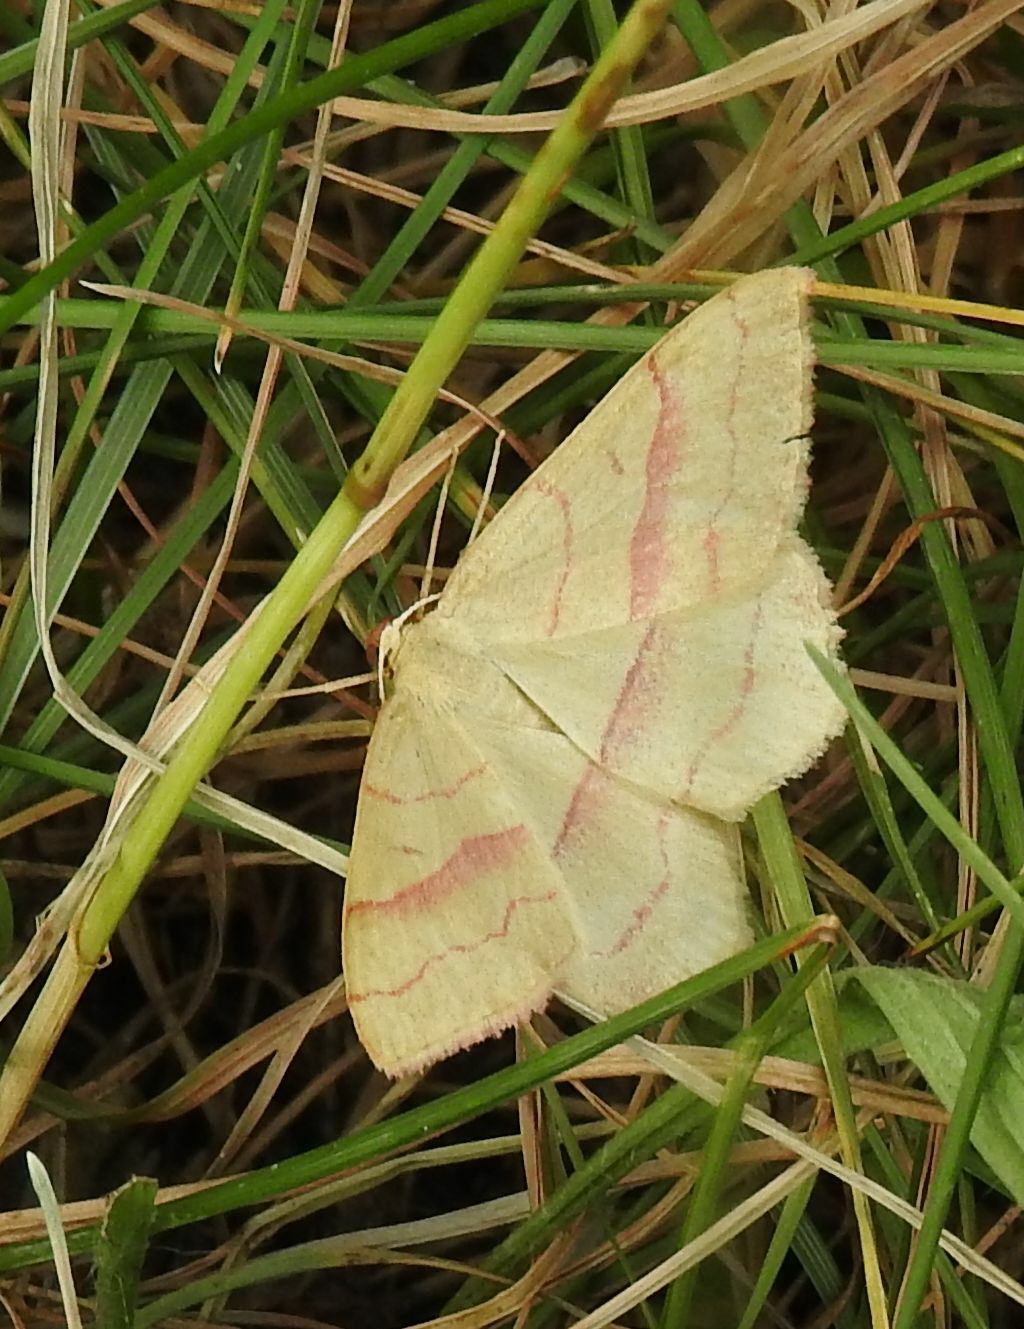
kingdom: Animalia
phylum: Arthropoda
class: Insecta
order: Lepidoptera
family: Geometridae
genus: Rhodostrophia
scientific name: Rhodostrophia vibicaria
